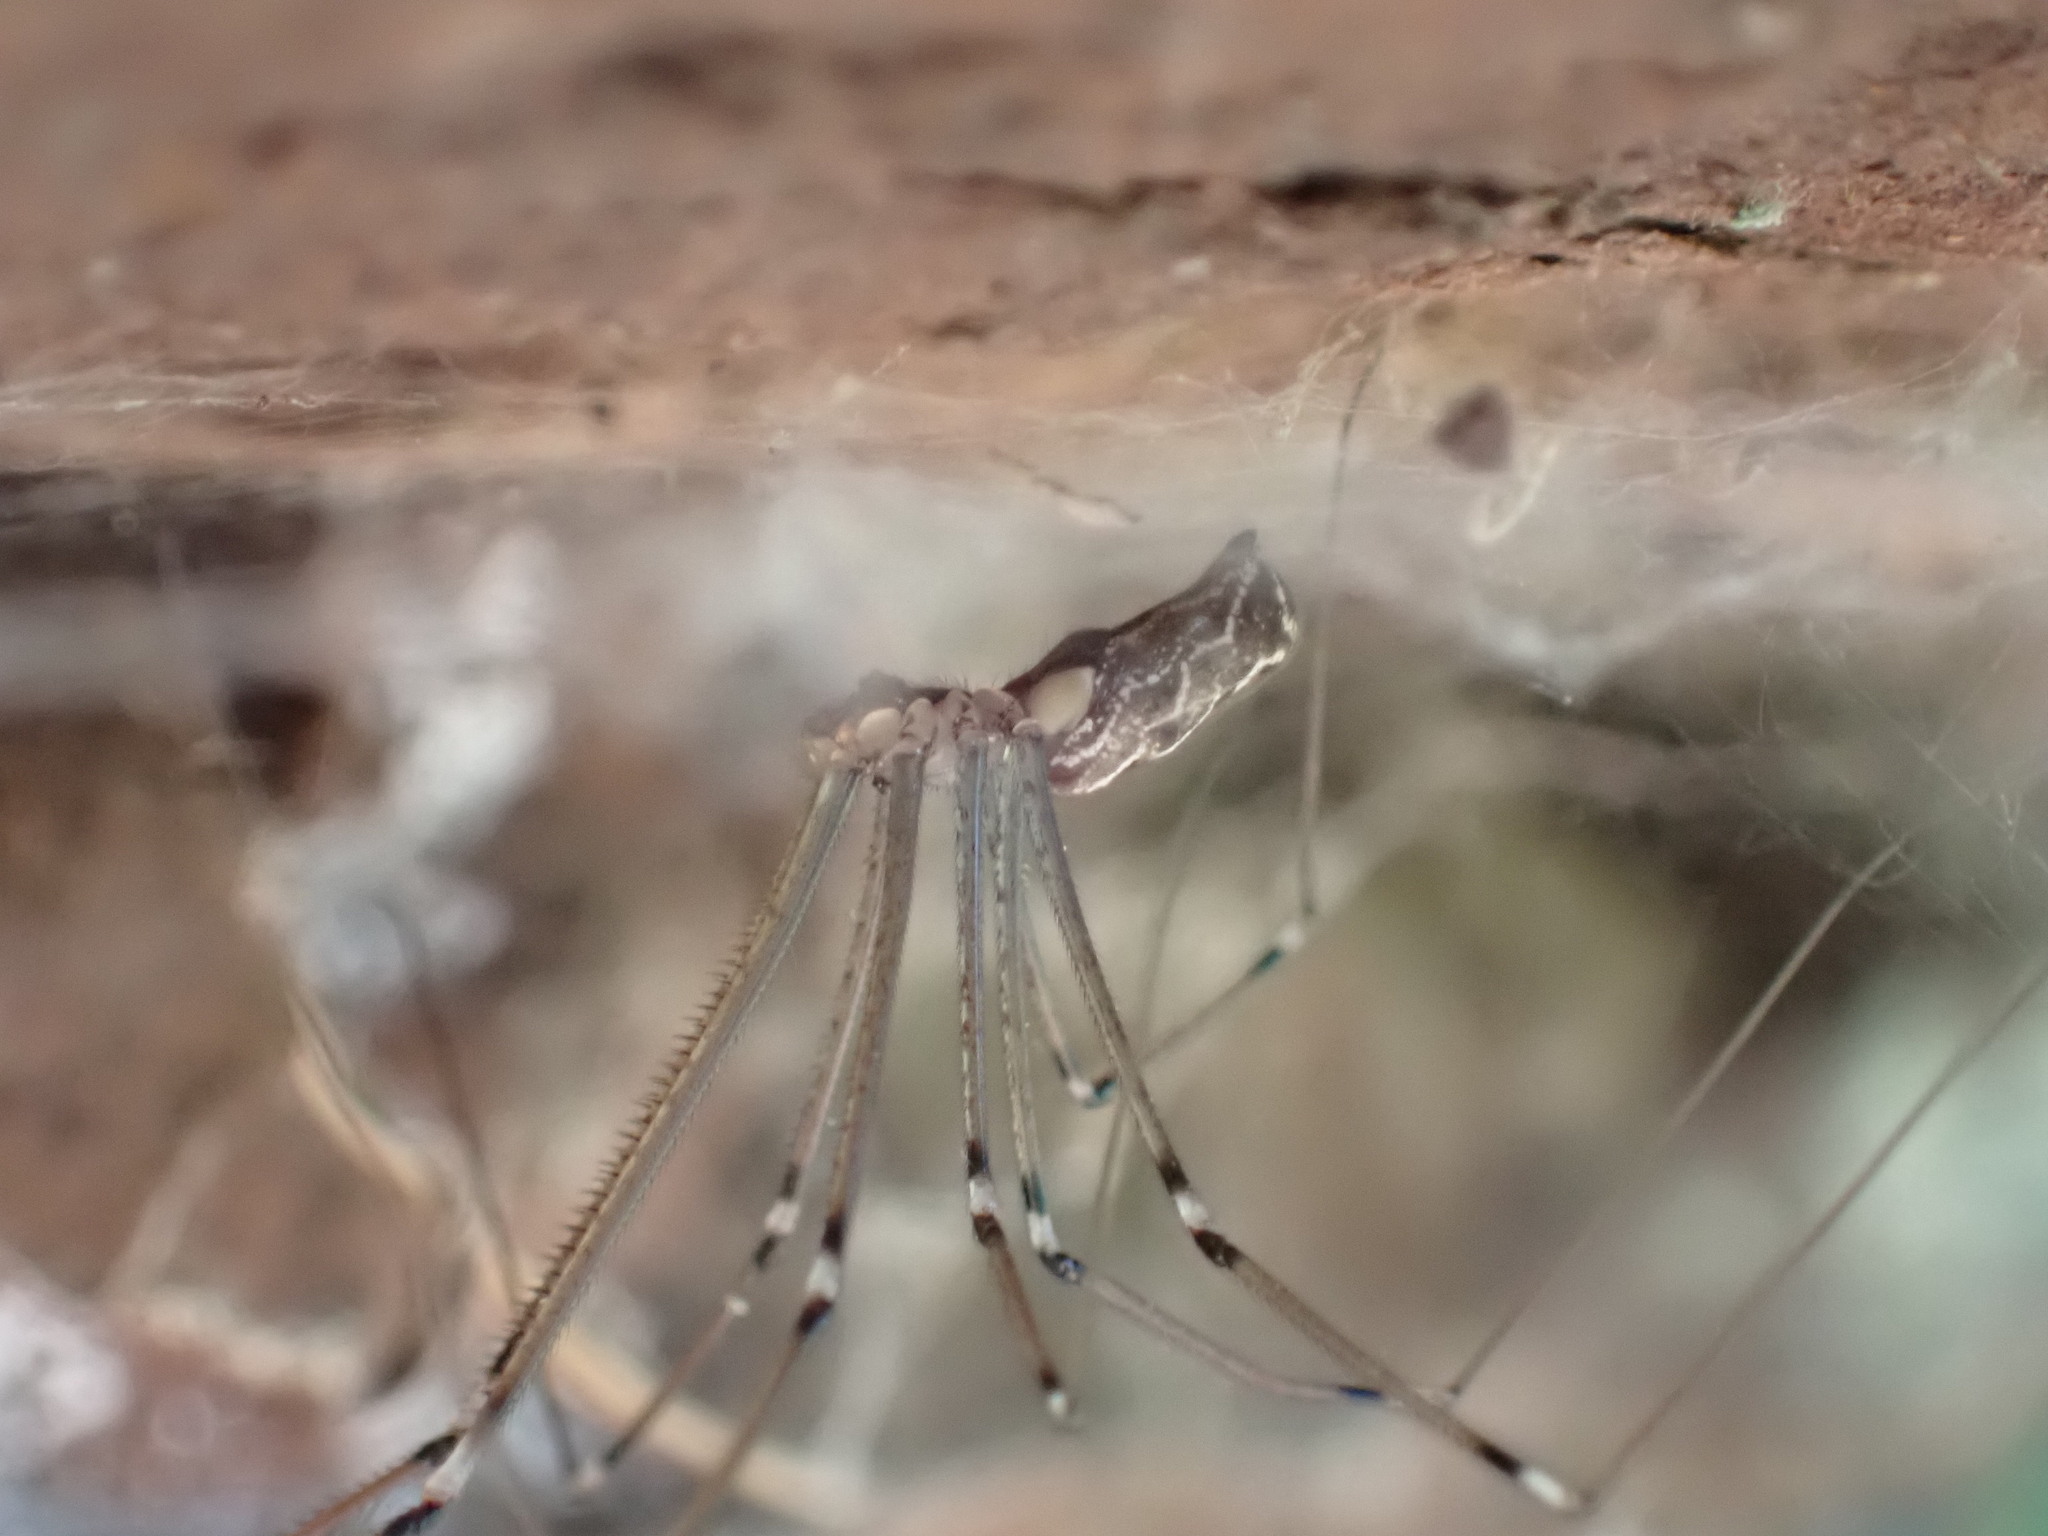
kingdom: Animalia
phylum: Arthropoda
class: Arachnida
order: Araneae
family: Pholcidae
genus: Holocnemus
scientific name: Holocnemus pluchei
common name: Marbled cellar spider
